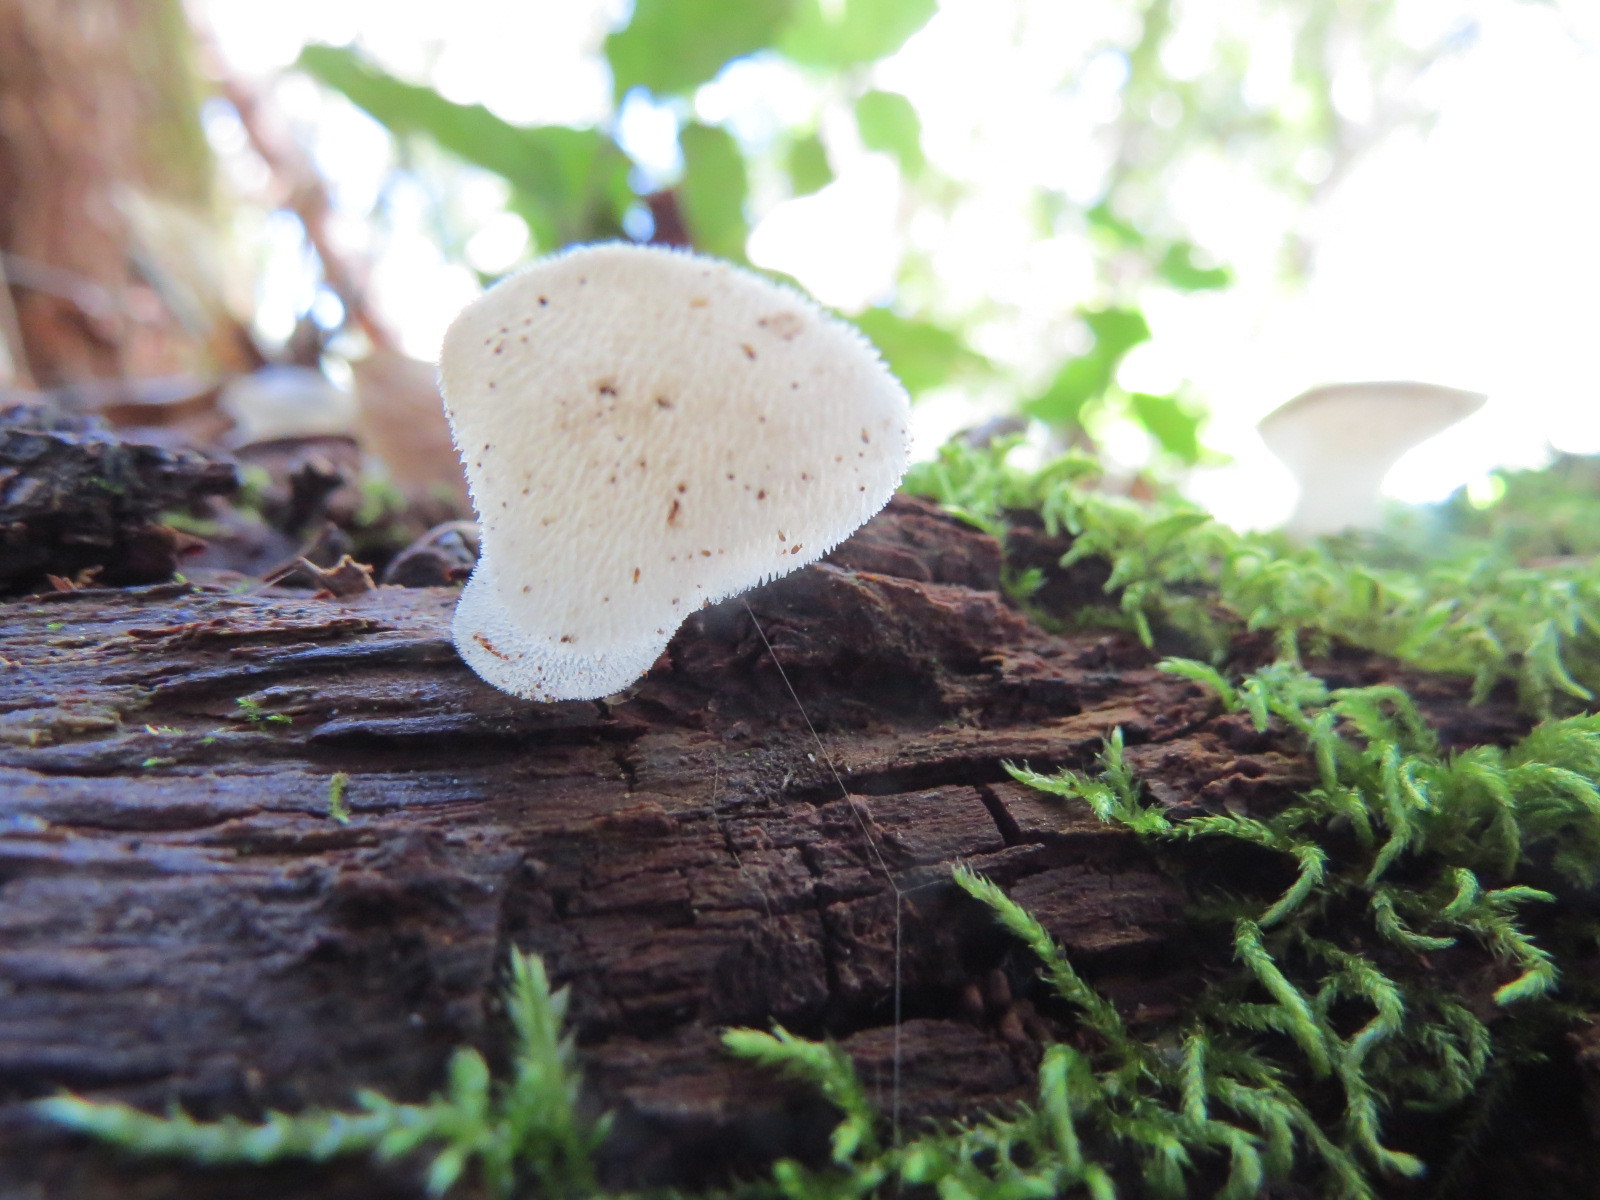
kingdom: Fungi
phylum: Basidiomycota
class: Agaricomycetes
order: Auriculariales
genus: Pseudohydnum
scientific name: Pseudohydnum gelatinosum
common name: Jelly tongue
